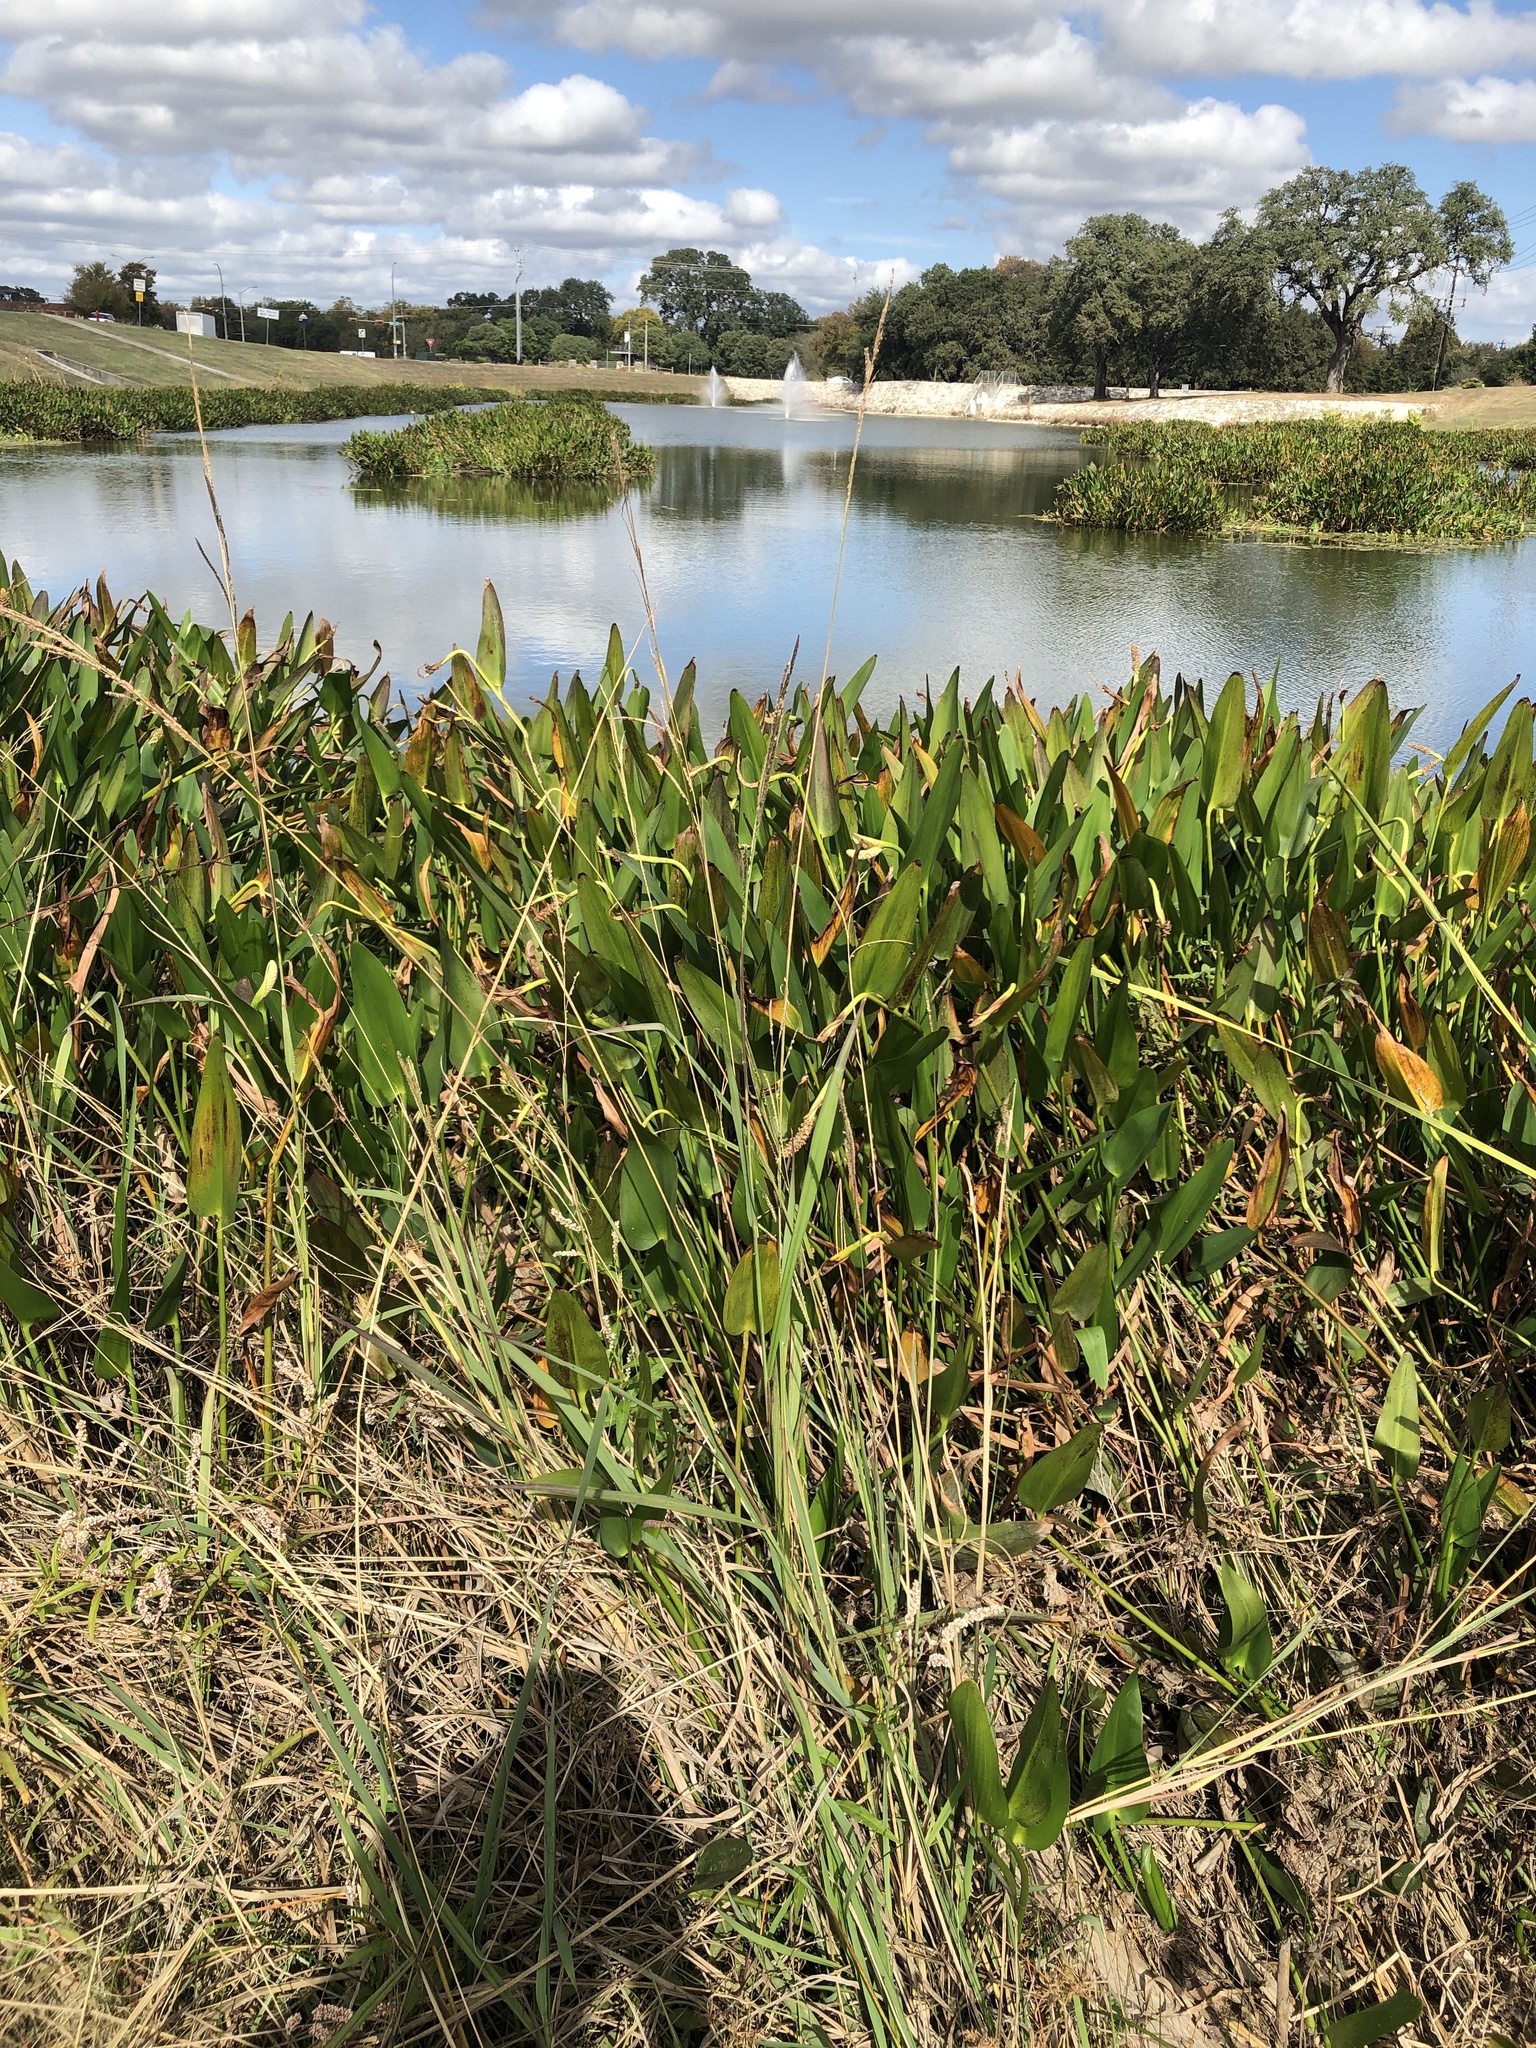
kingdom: Plantae
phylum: Tracheophyta
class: Liliopsida
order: Poales
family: Poaceae
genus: Paspalum
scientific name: Paspalum urvillei
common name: Vasey's grass
